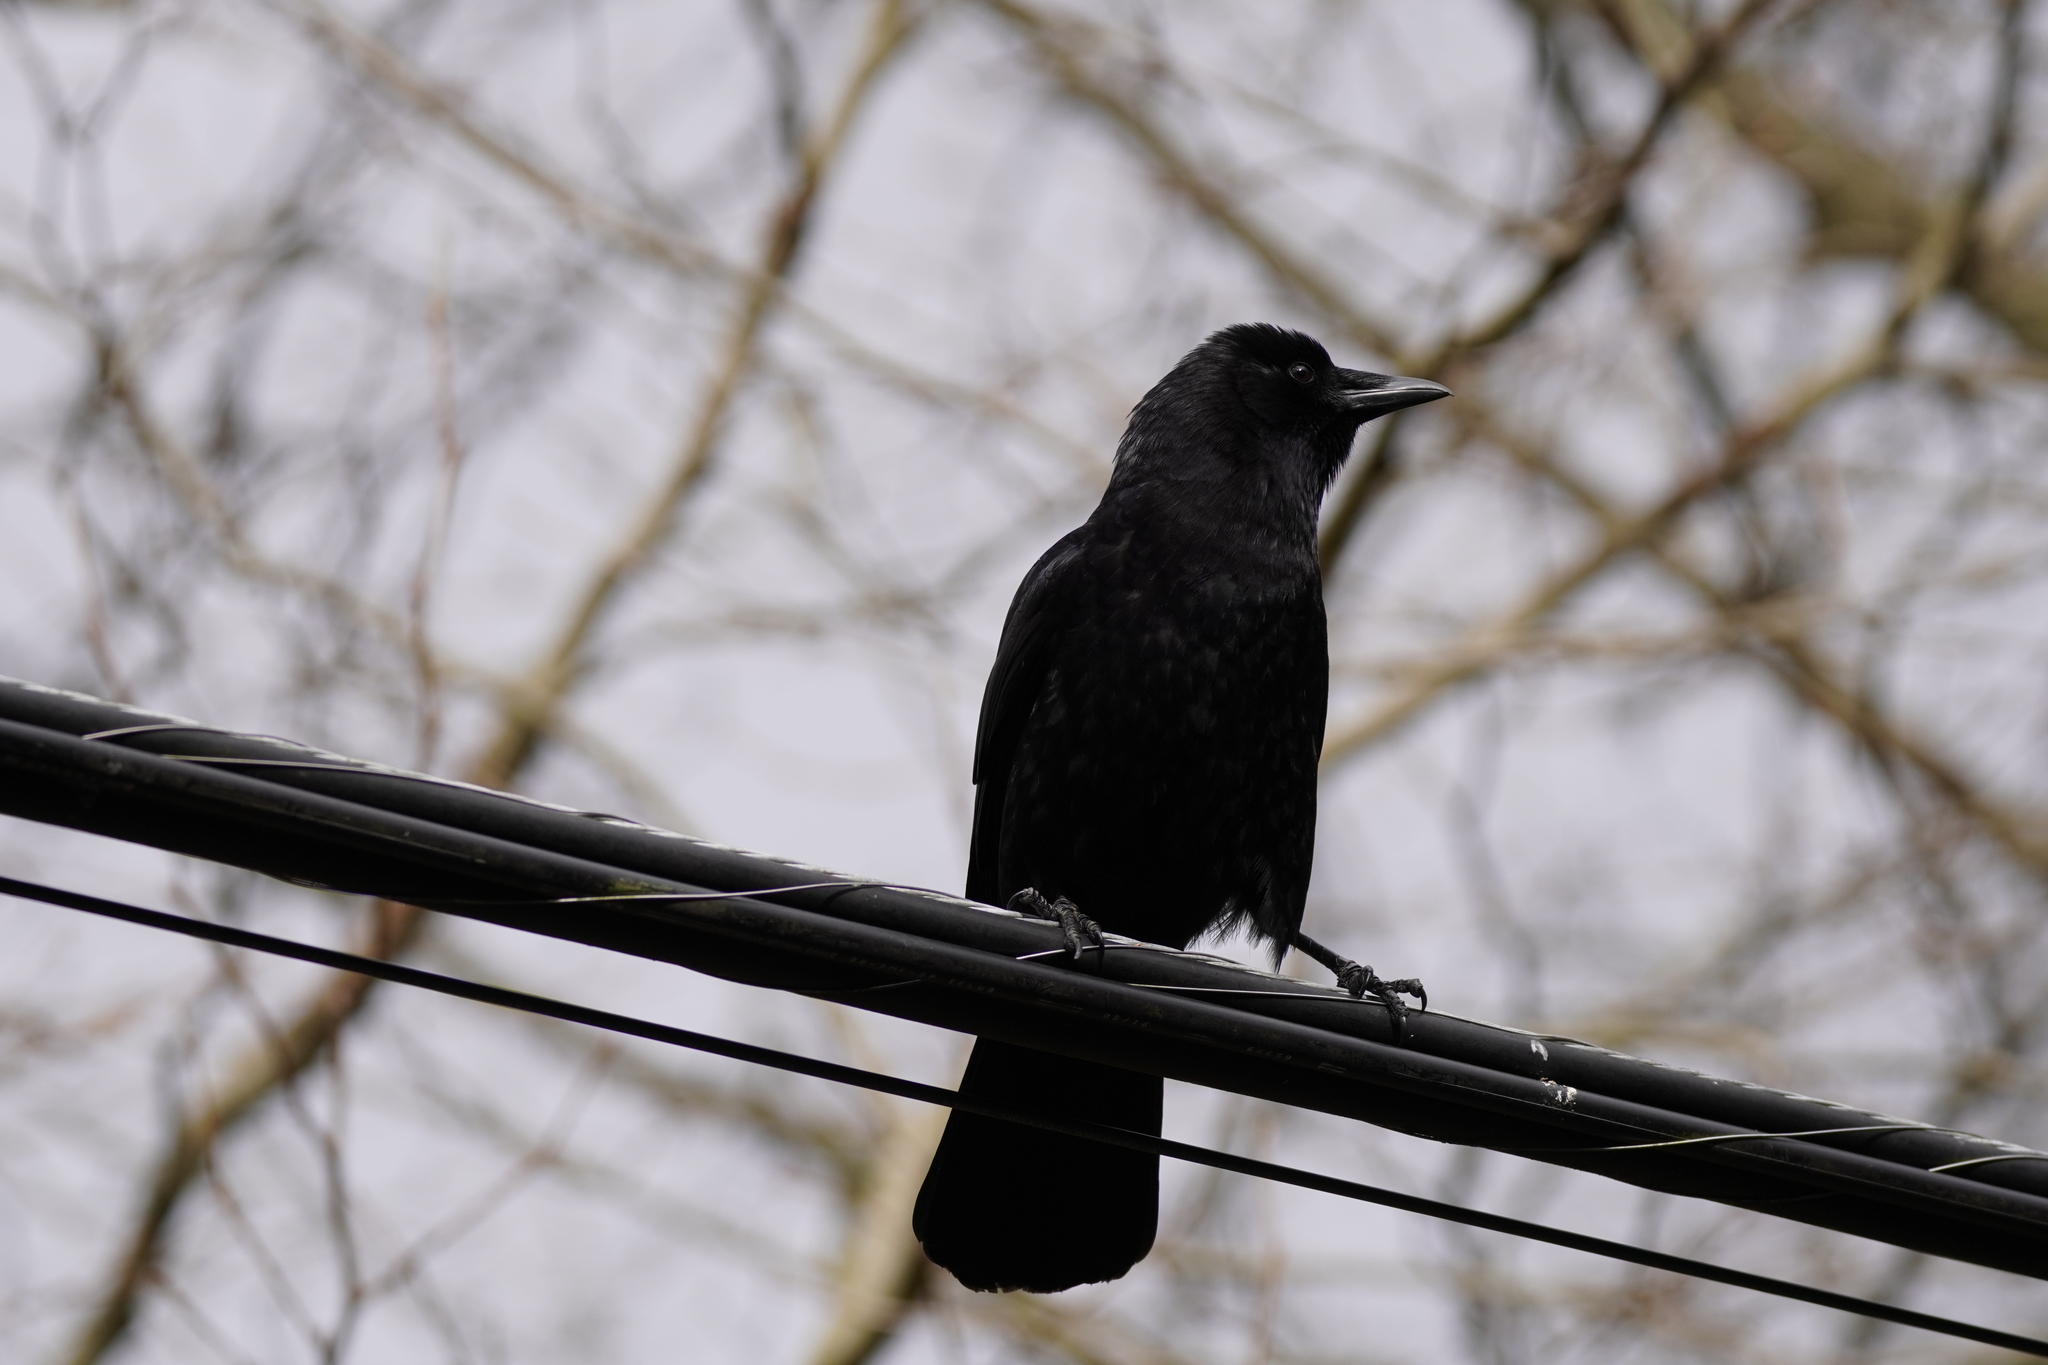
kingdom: Animalia
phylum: Chordata
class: Aves
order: Passeriformes
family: Corvidae
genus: Corvus
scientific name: Corvus brachyrhynchos
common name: American crow
